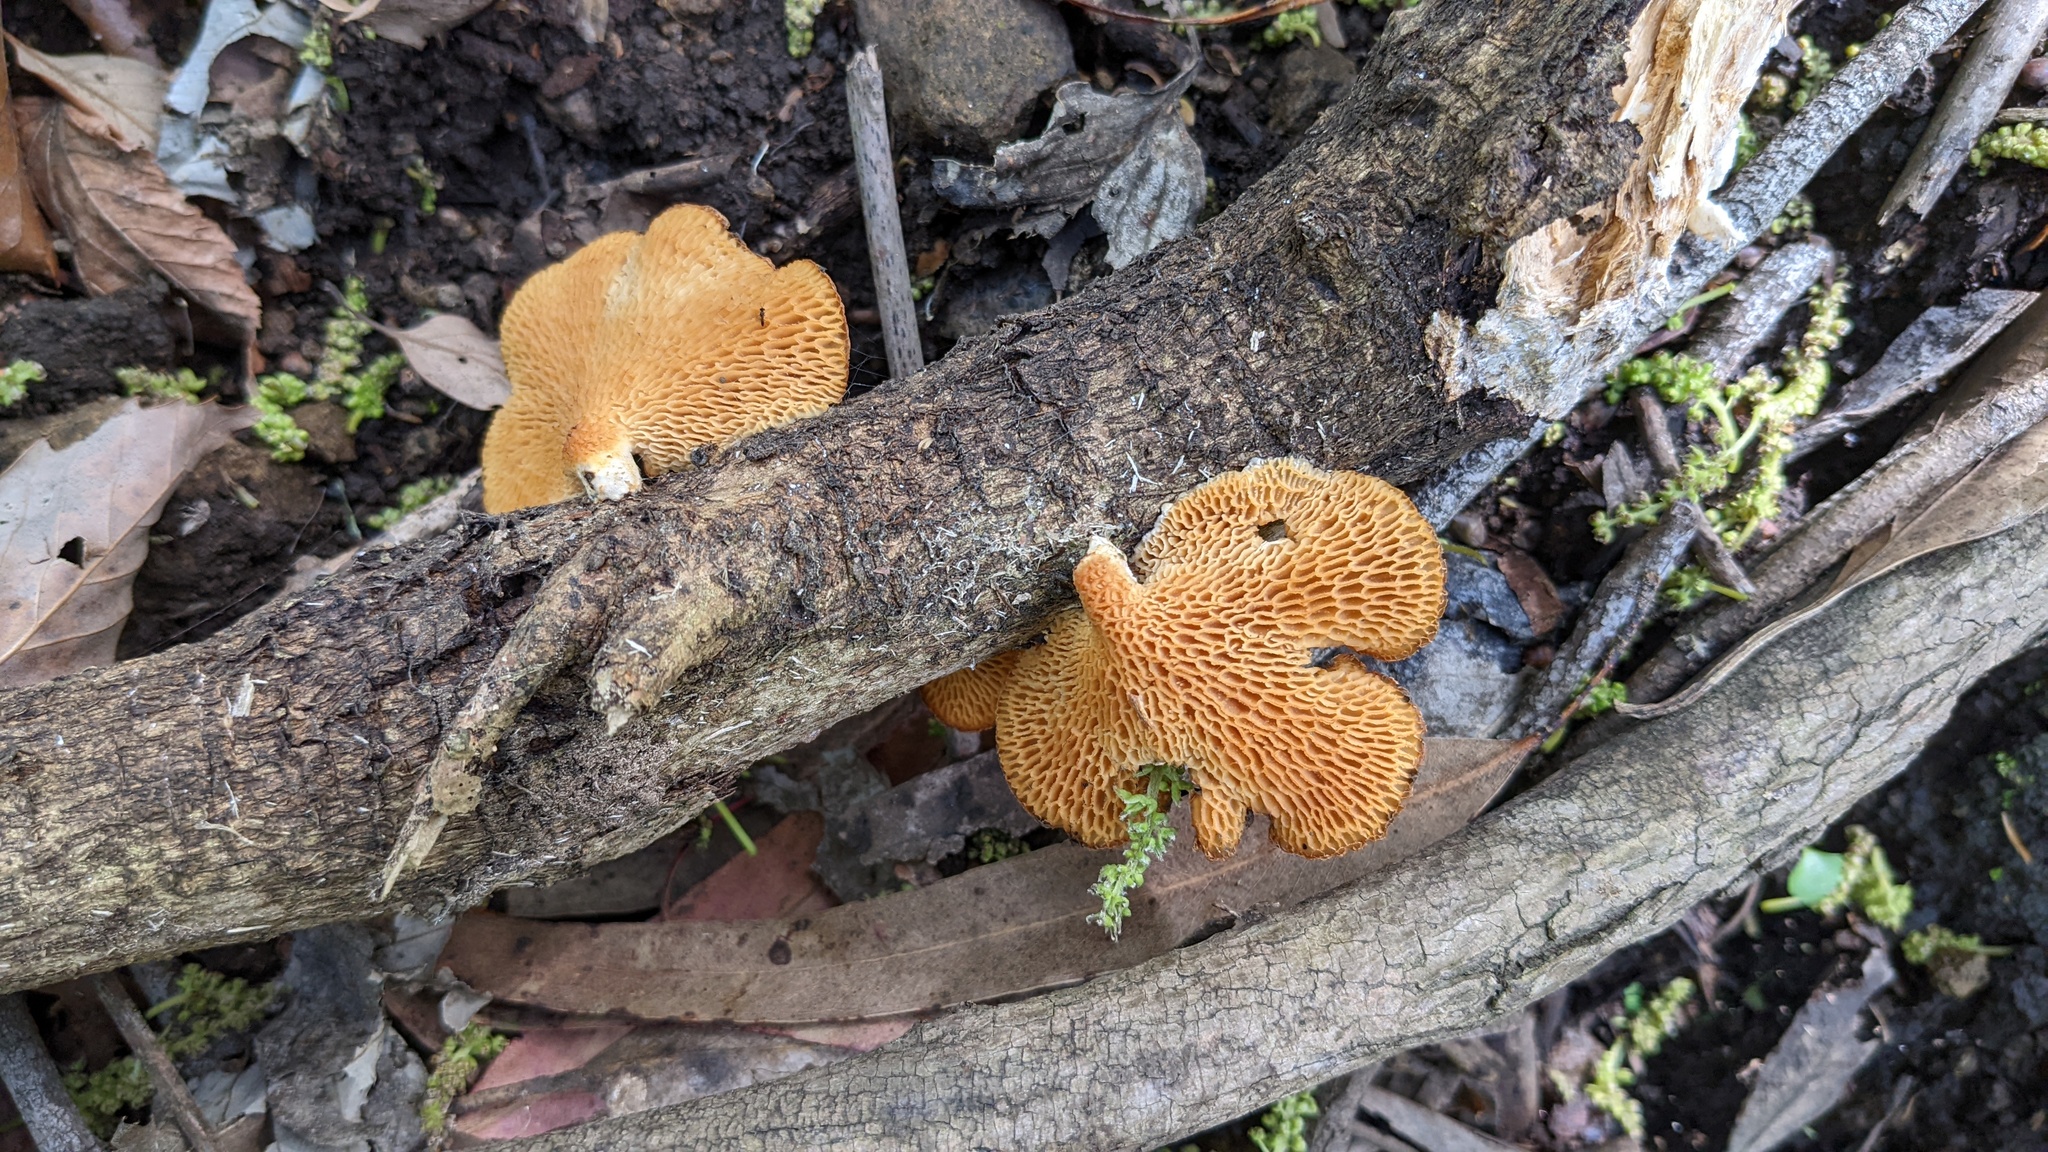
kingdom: Fungi
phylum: Basidiomycota
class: Agaricomycetes
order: Polyporales
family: Polyporaceae
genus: Neofavolus
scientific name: Neofavolus alveolaris
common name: Hexagonal-pored polypore
